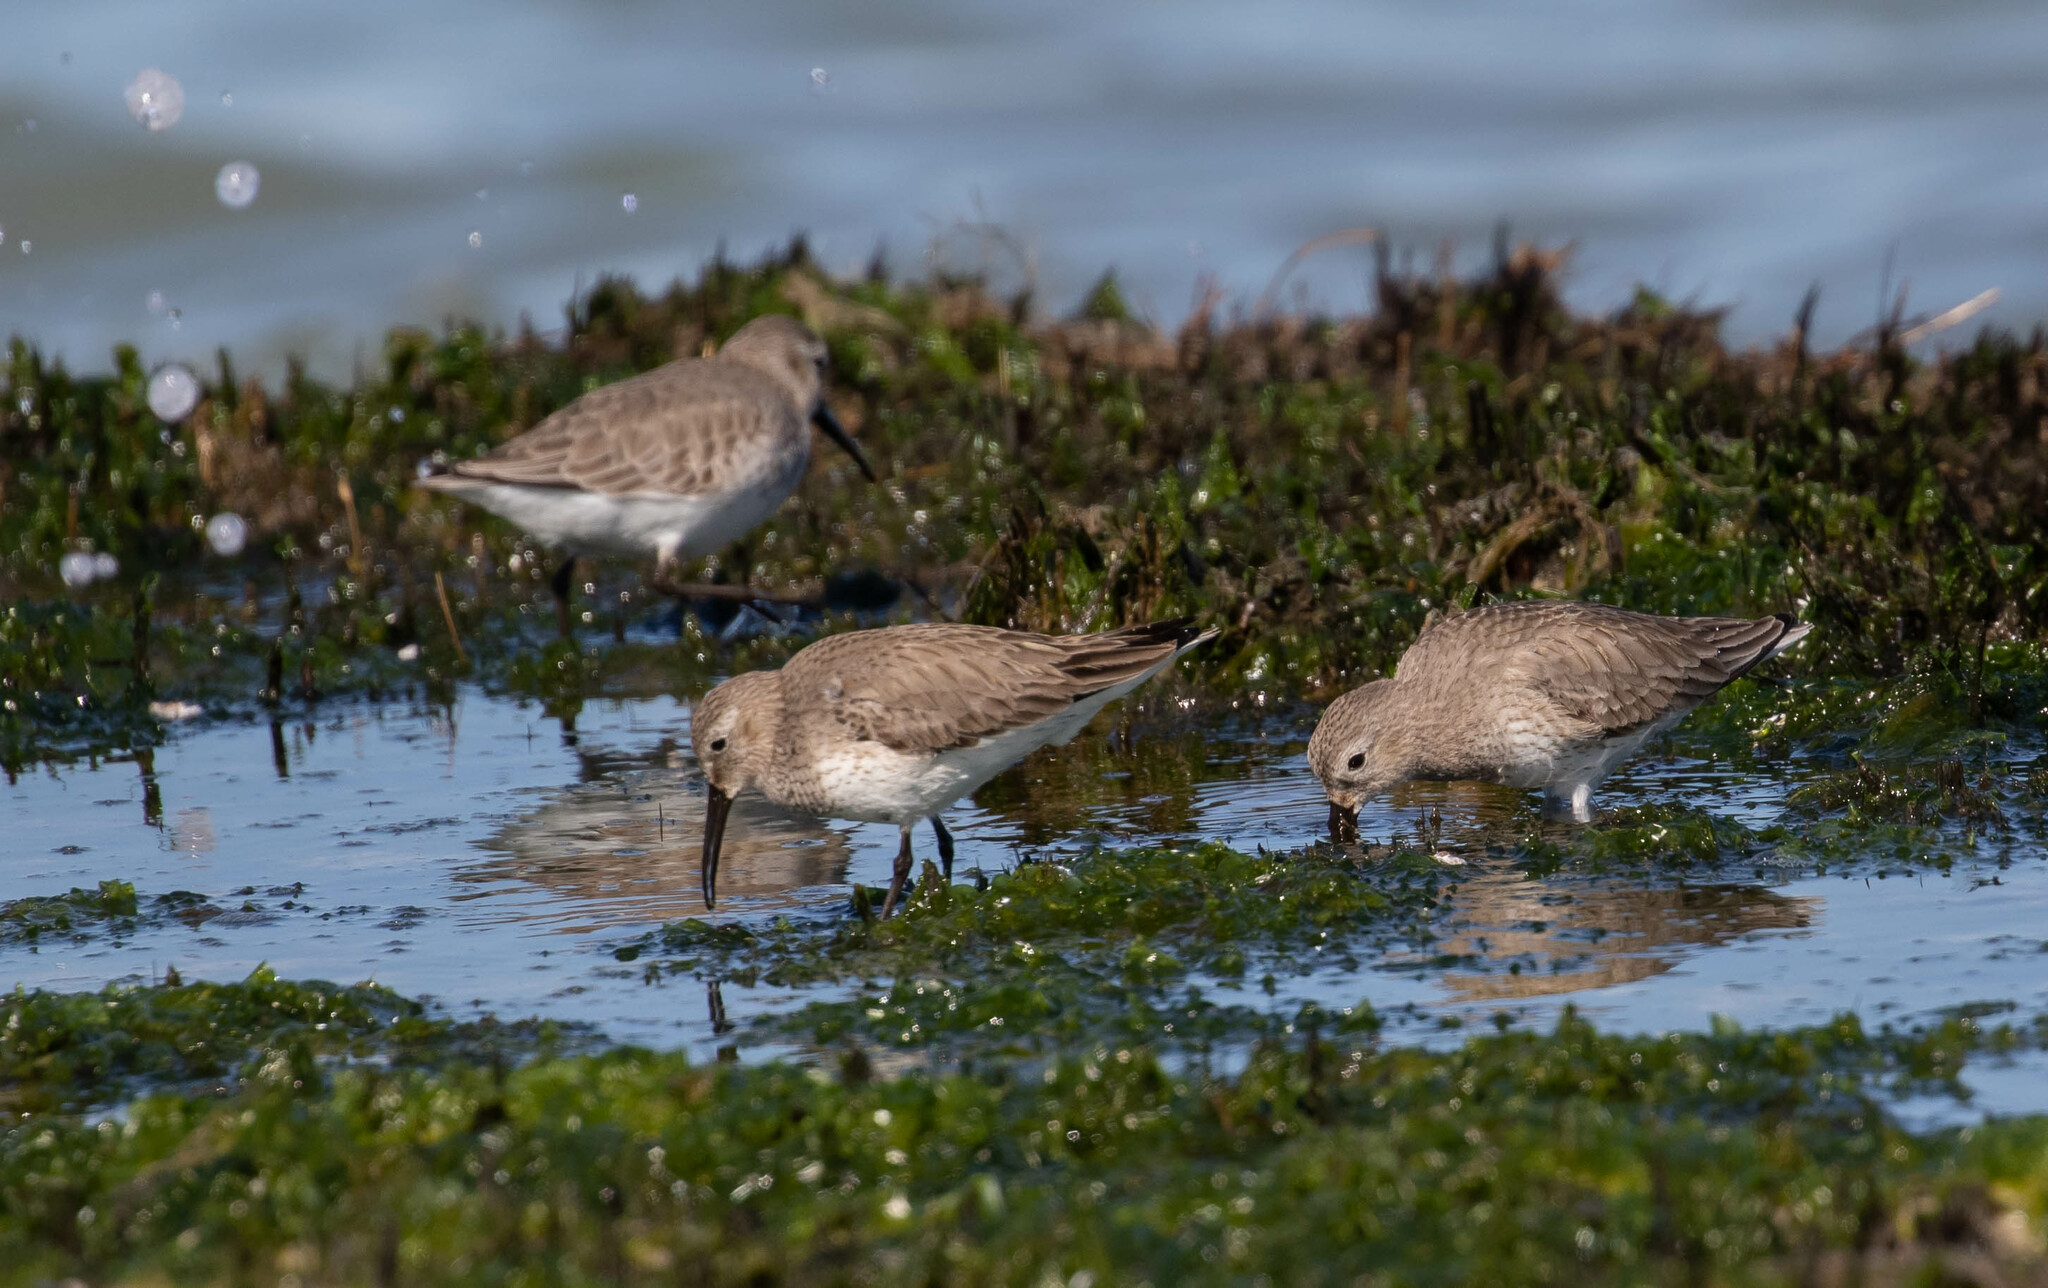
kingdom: Animalia
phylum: Chordata
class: Aves
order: Charadriiformes
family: Scolopacidae
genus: Calidris
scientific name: Calidris alpina
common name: Dunlin
